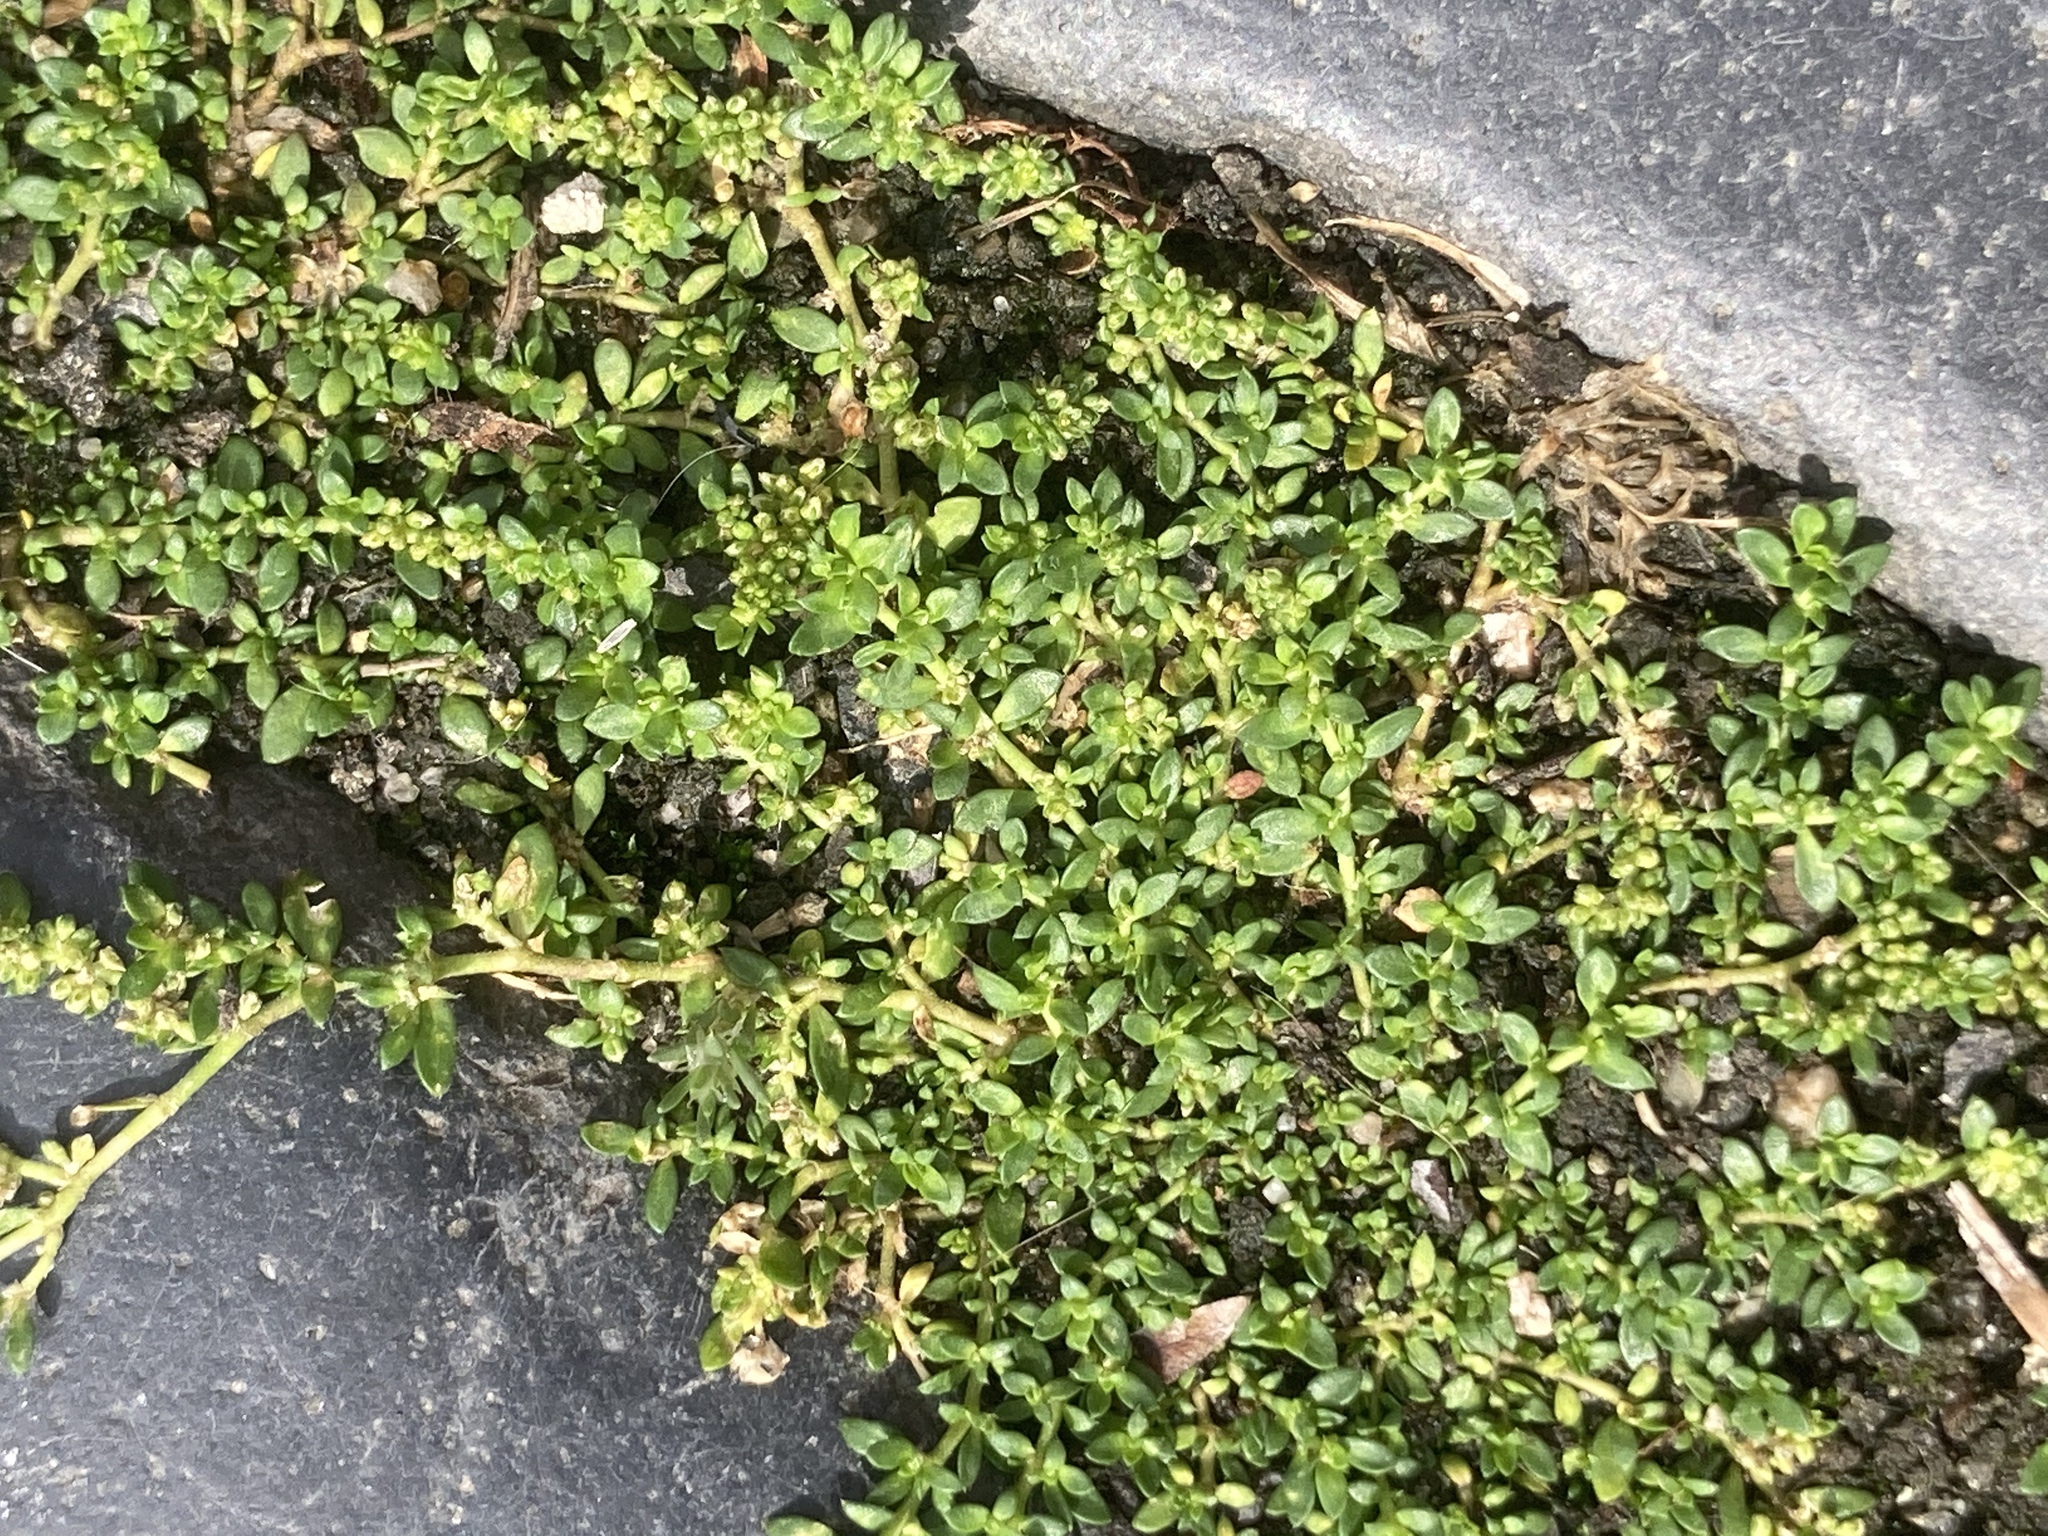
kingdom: Plantae
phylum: Tracheophyta
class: Magnoliopsida
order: Caryophyllales
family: Caryophyllaceae
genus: Herniaria
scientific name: Herniaria glabra
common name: Smooth rupturewort
